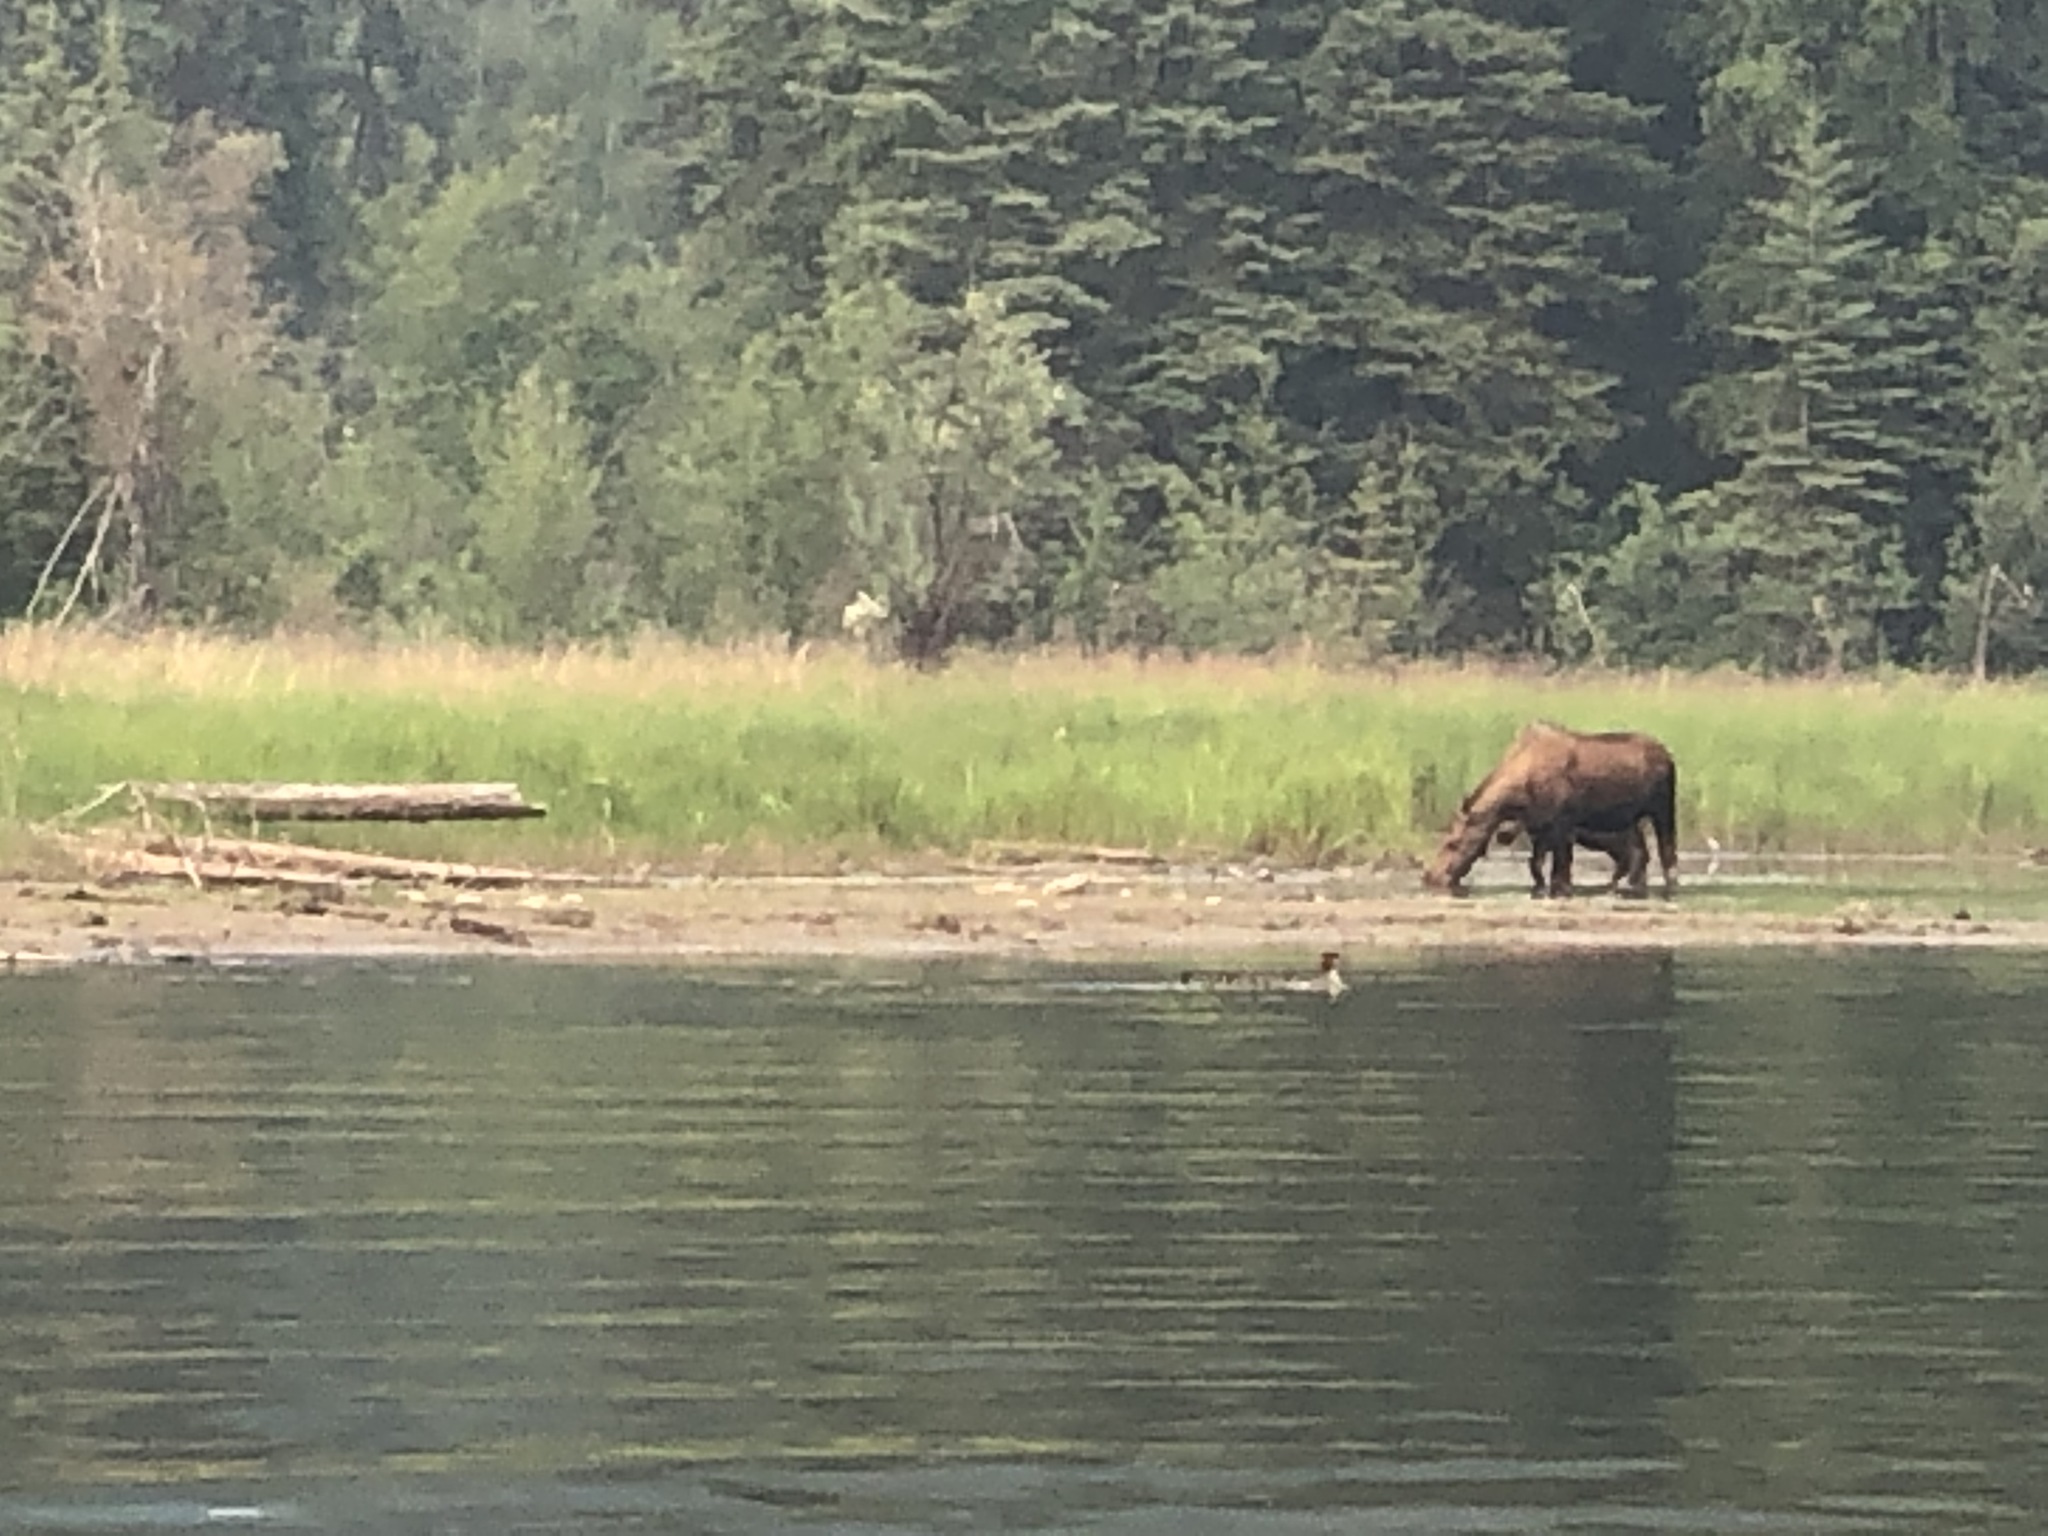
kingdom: Animalia
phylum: Chordata
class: Aves
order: Anseriformes
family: Anatidae
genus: Mergus
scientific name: Mergus merganser
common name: Common merganser
